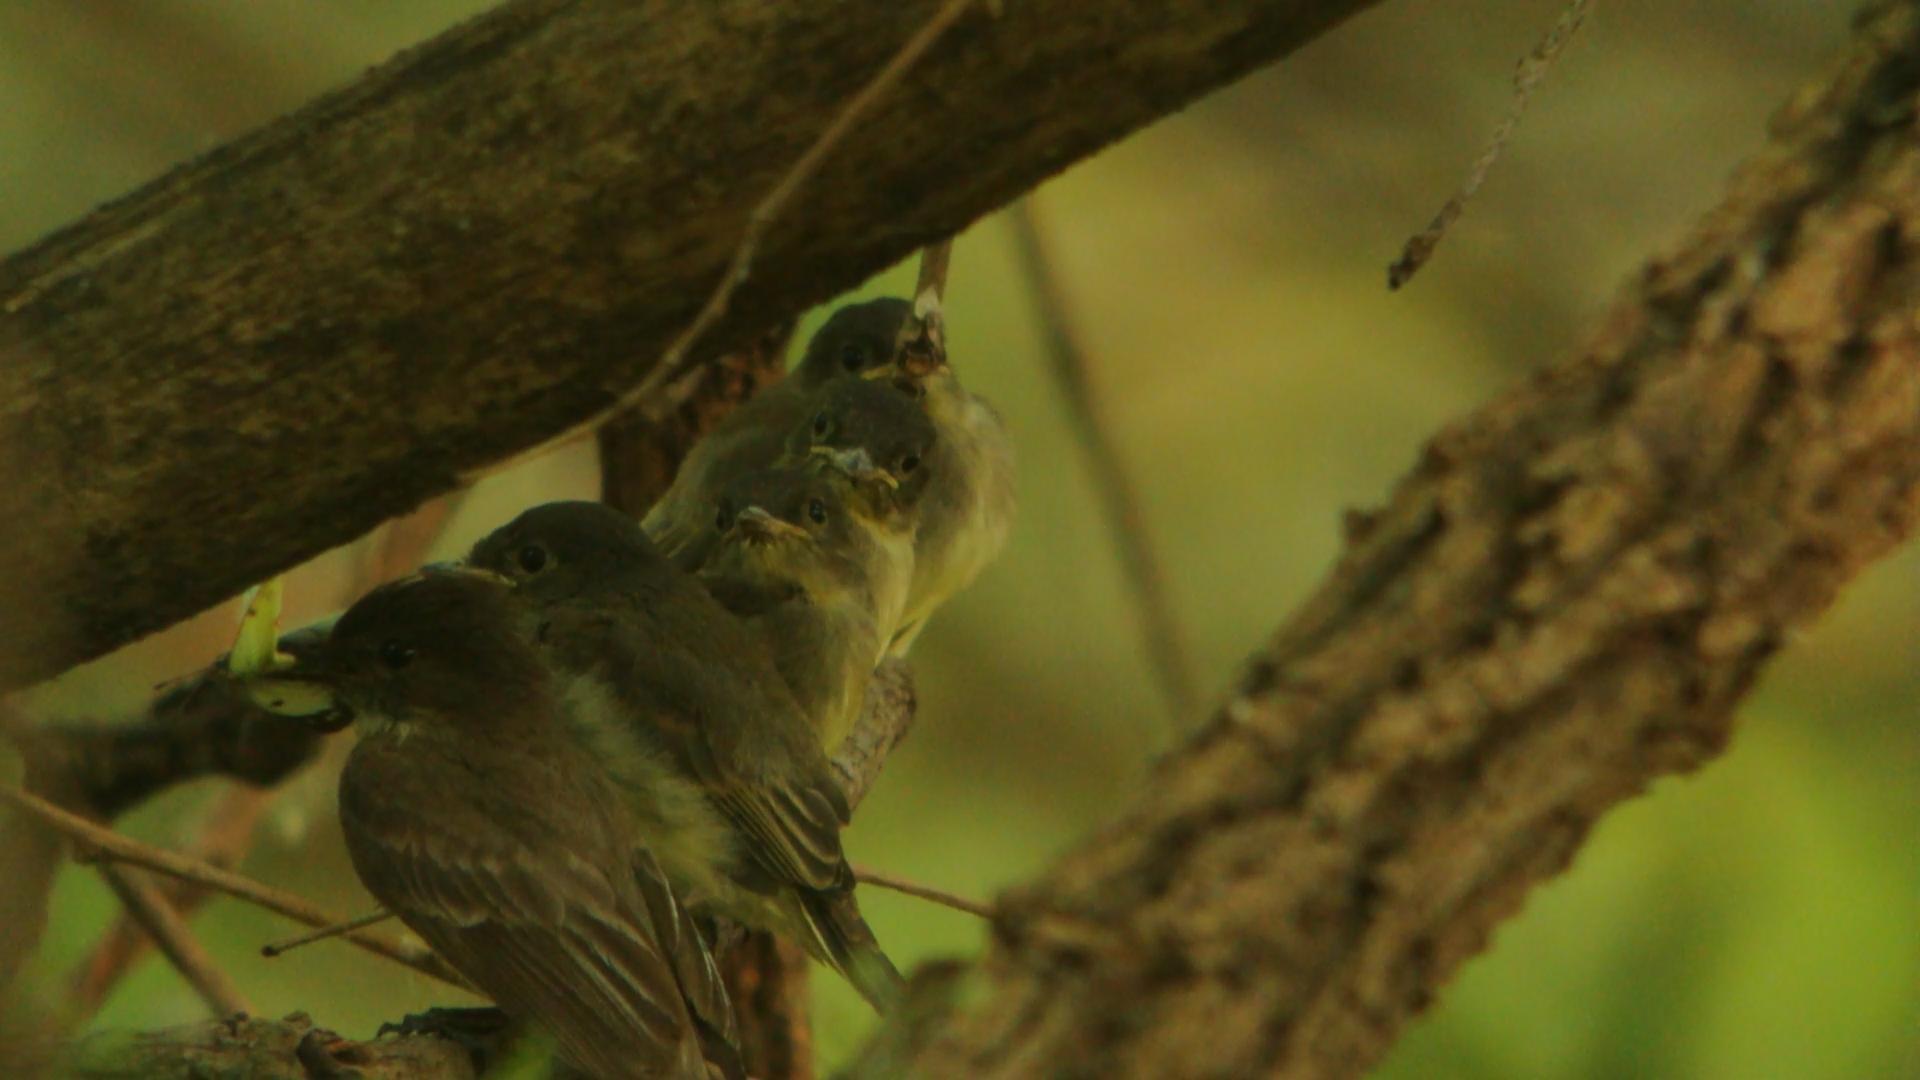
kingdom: Animalia
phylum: Chordata
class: Aves
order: Passeriformes
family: Tyrannidae
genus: Sayornis
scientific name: Sayornis phoebe
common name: Eastern phoebe
